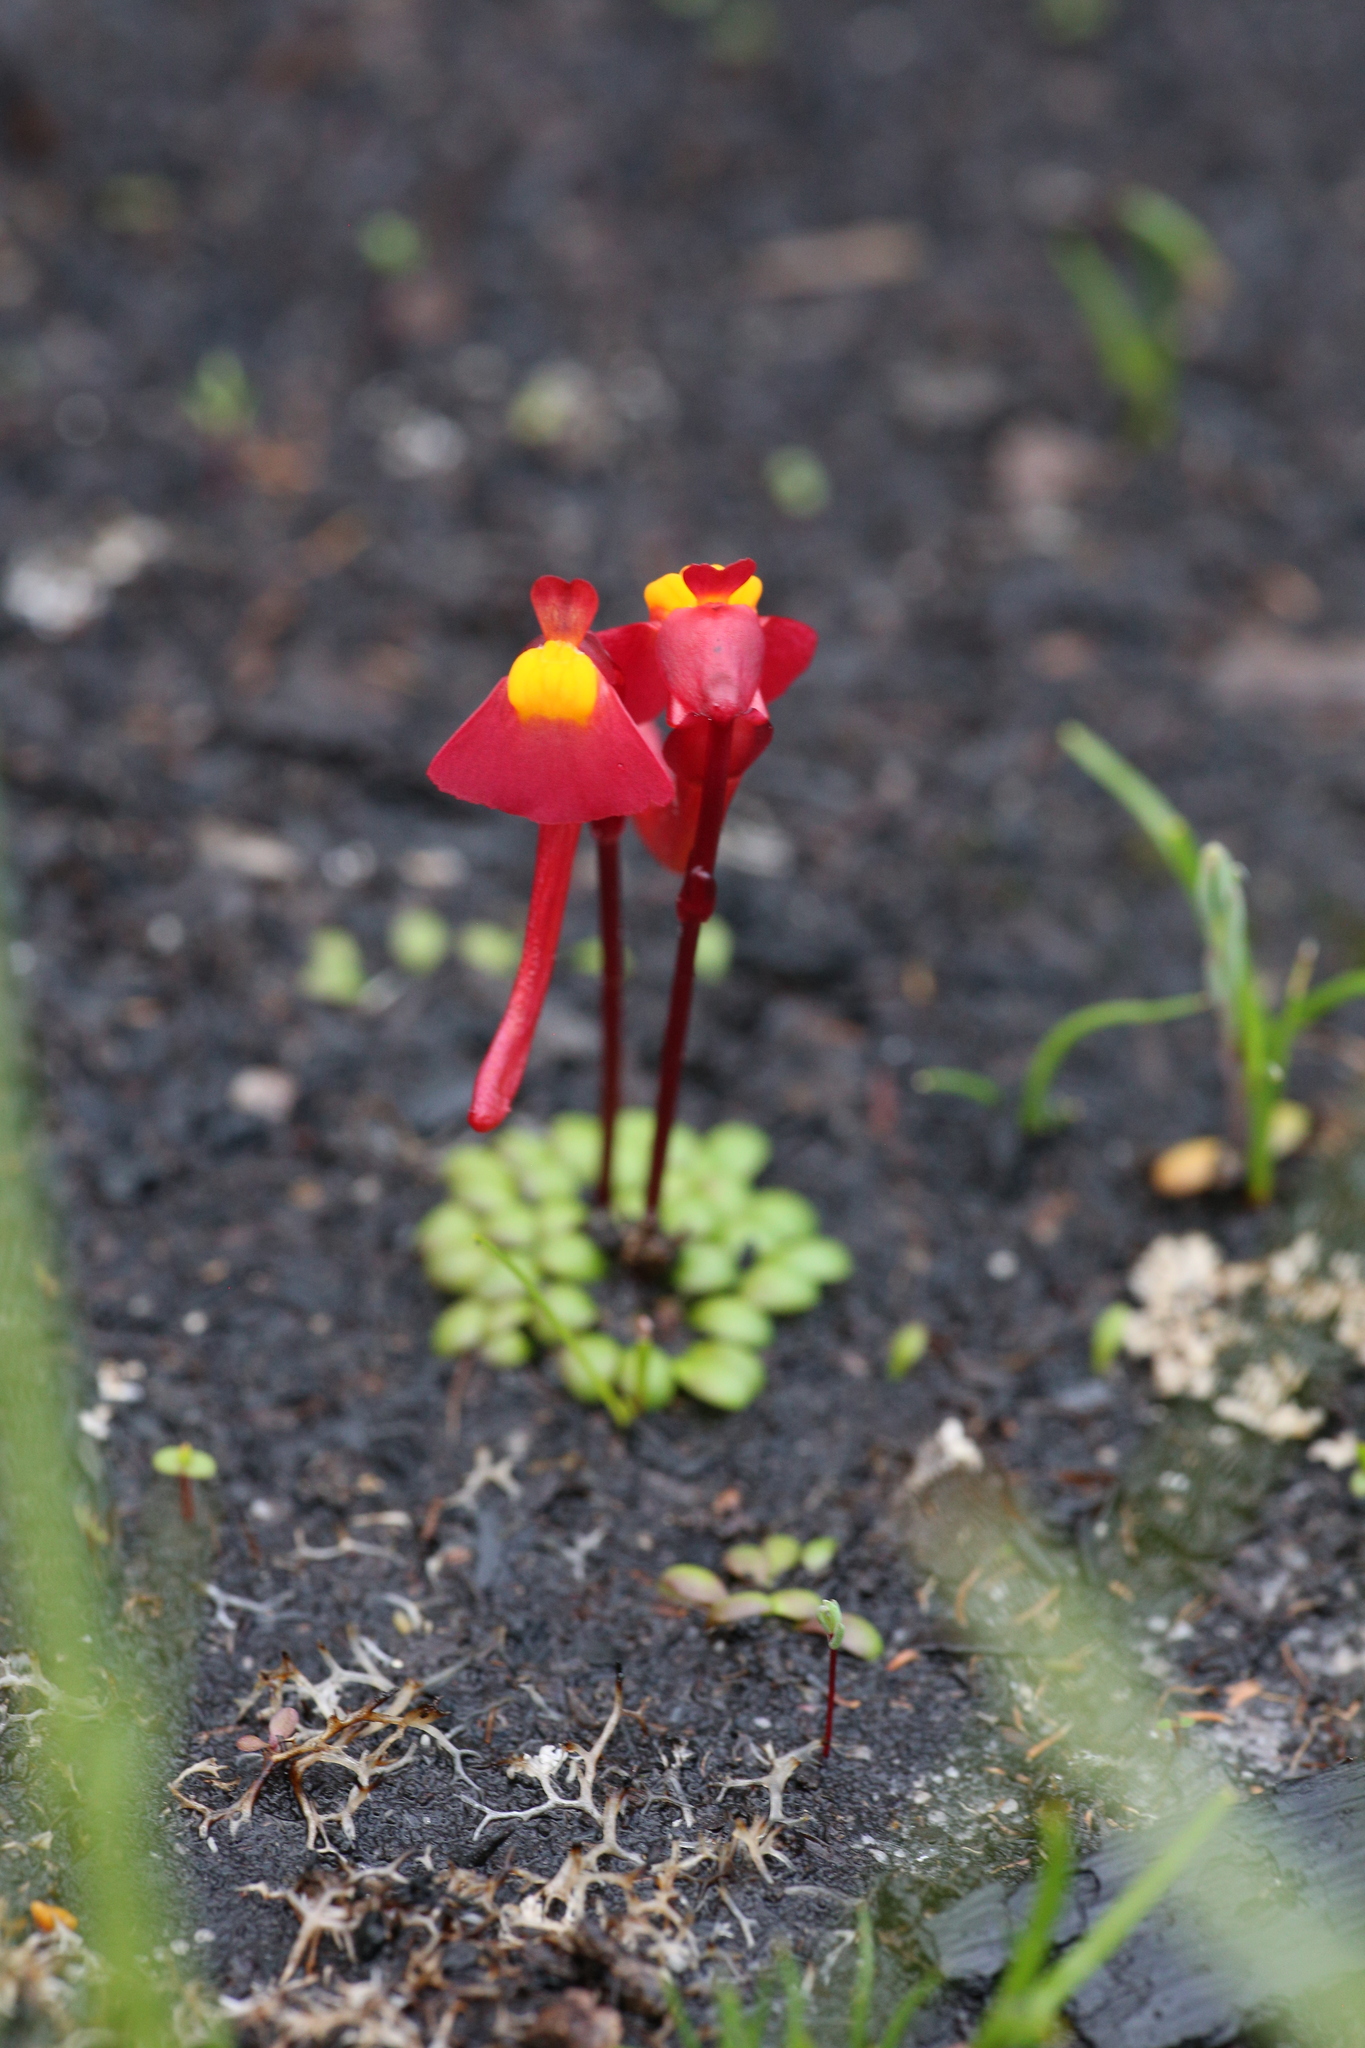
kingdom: Plantae
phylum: Tracheophyta
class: Magnoliopsida
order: Lamiales
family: Lentibulariaceae
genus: Utricularia
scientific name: Utricularia menziesii
